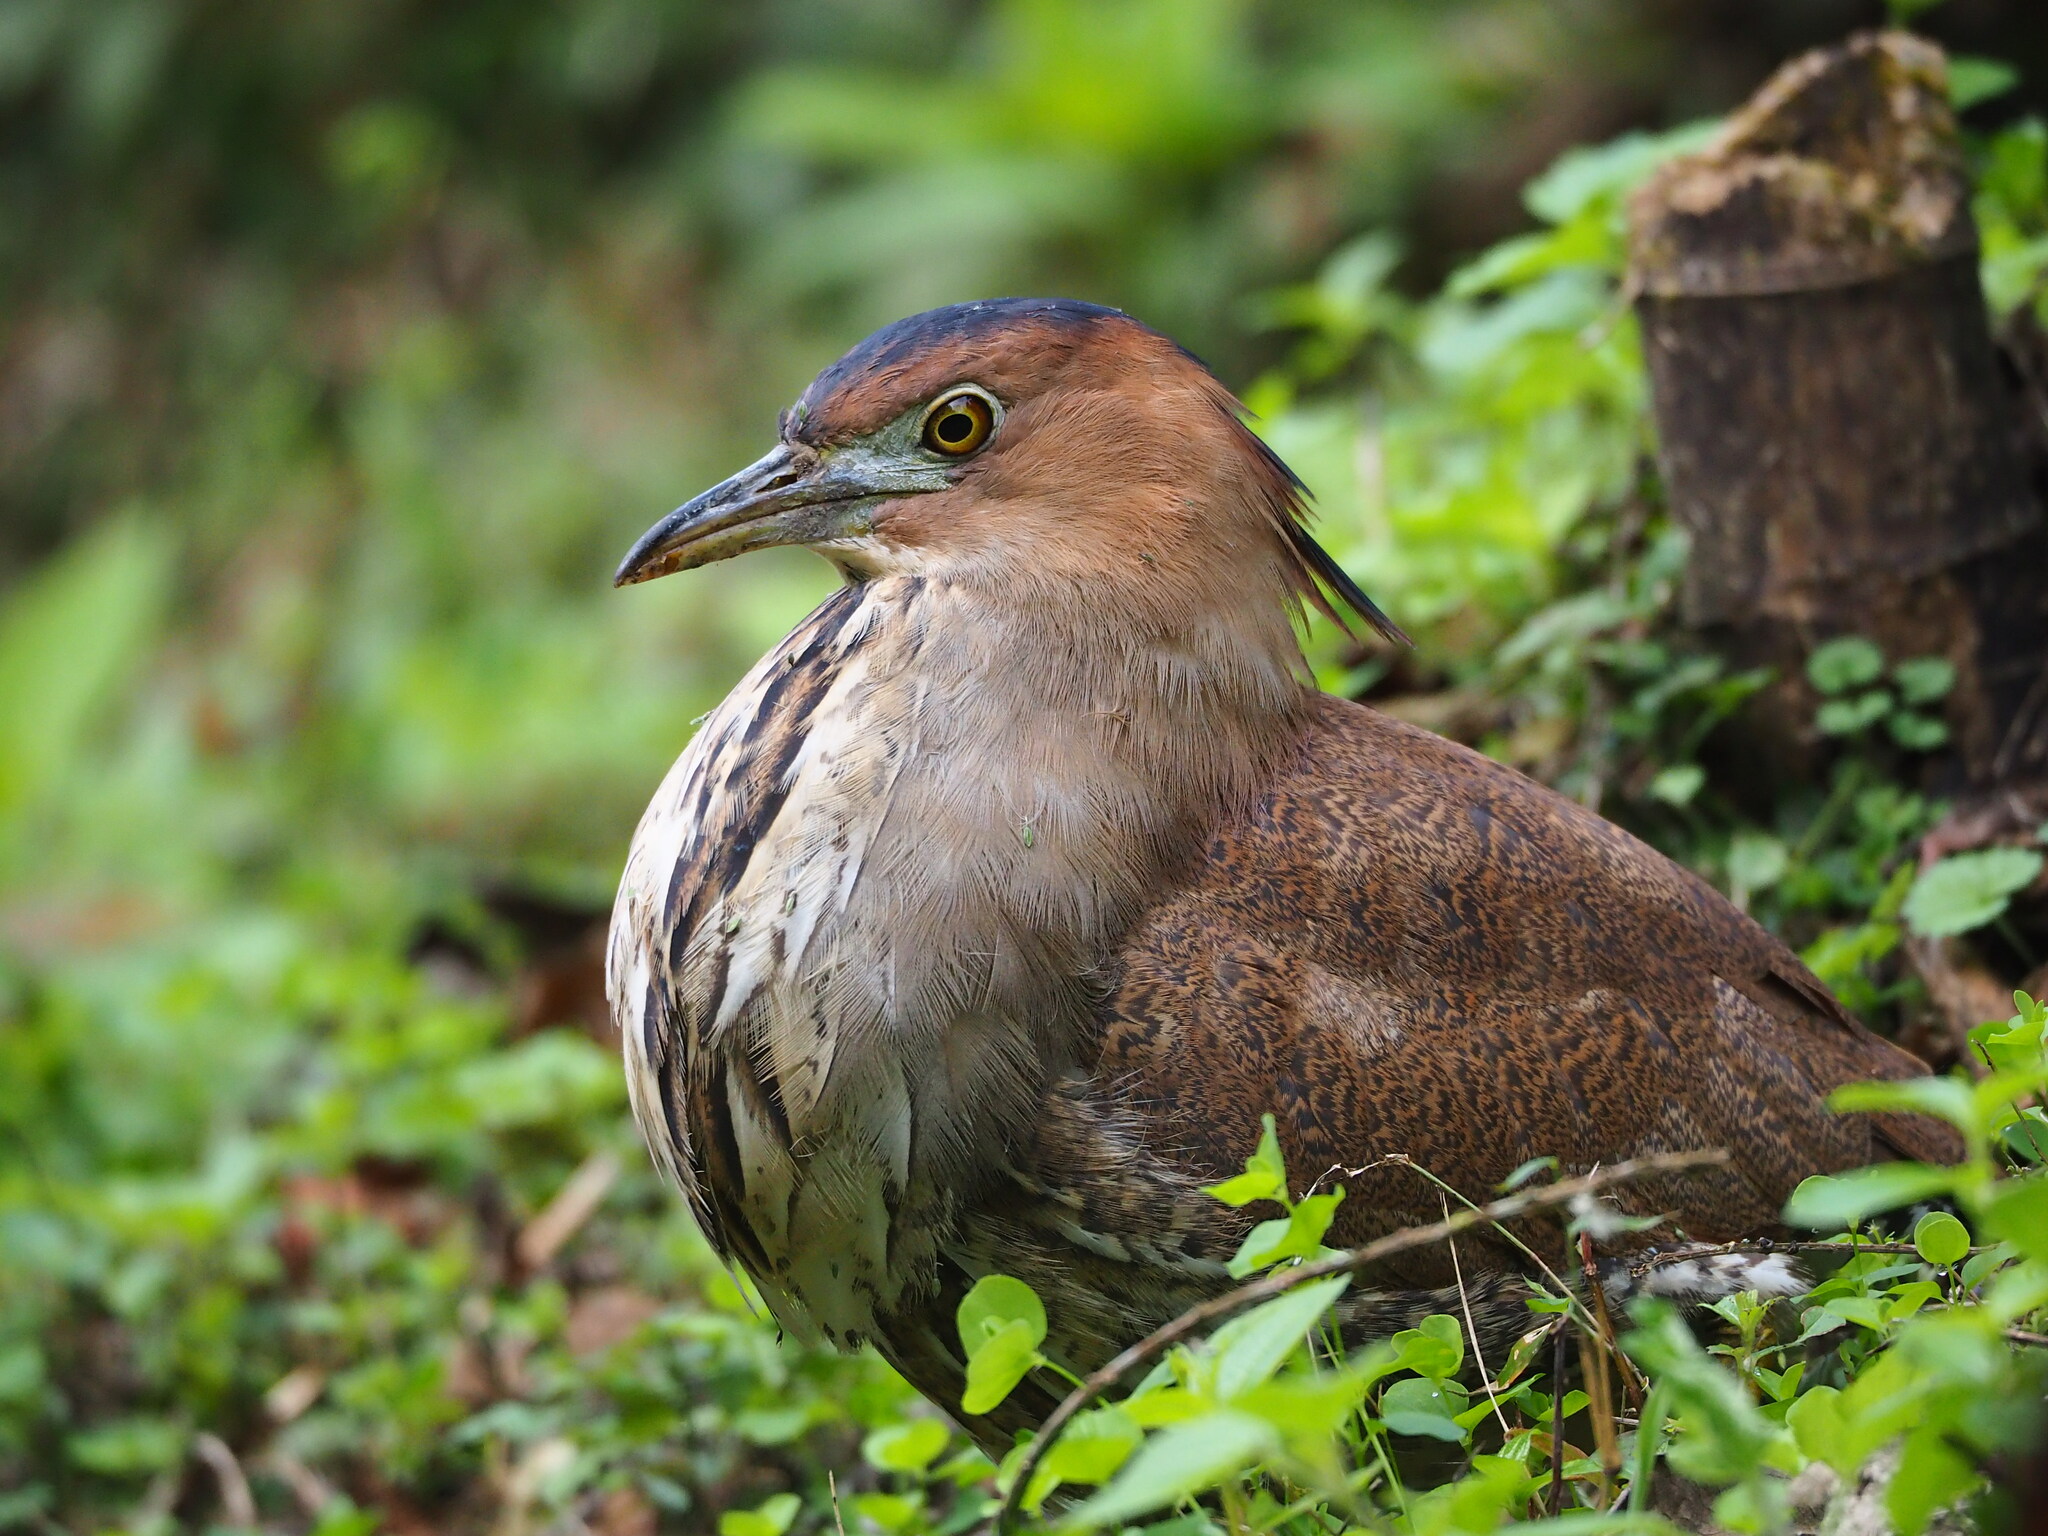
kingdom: Animalia
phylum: Chordata
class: Aves
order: Pelecaniformes
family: Ardeidae
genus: Gorsachius
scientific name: Gorsachius melanolophus
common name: Malayan night heron
